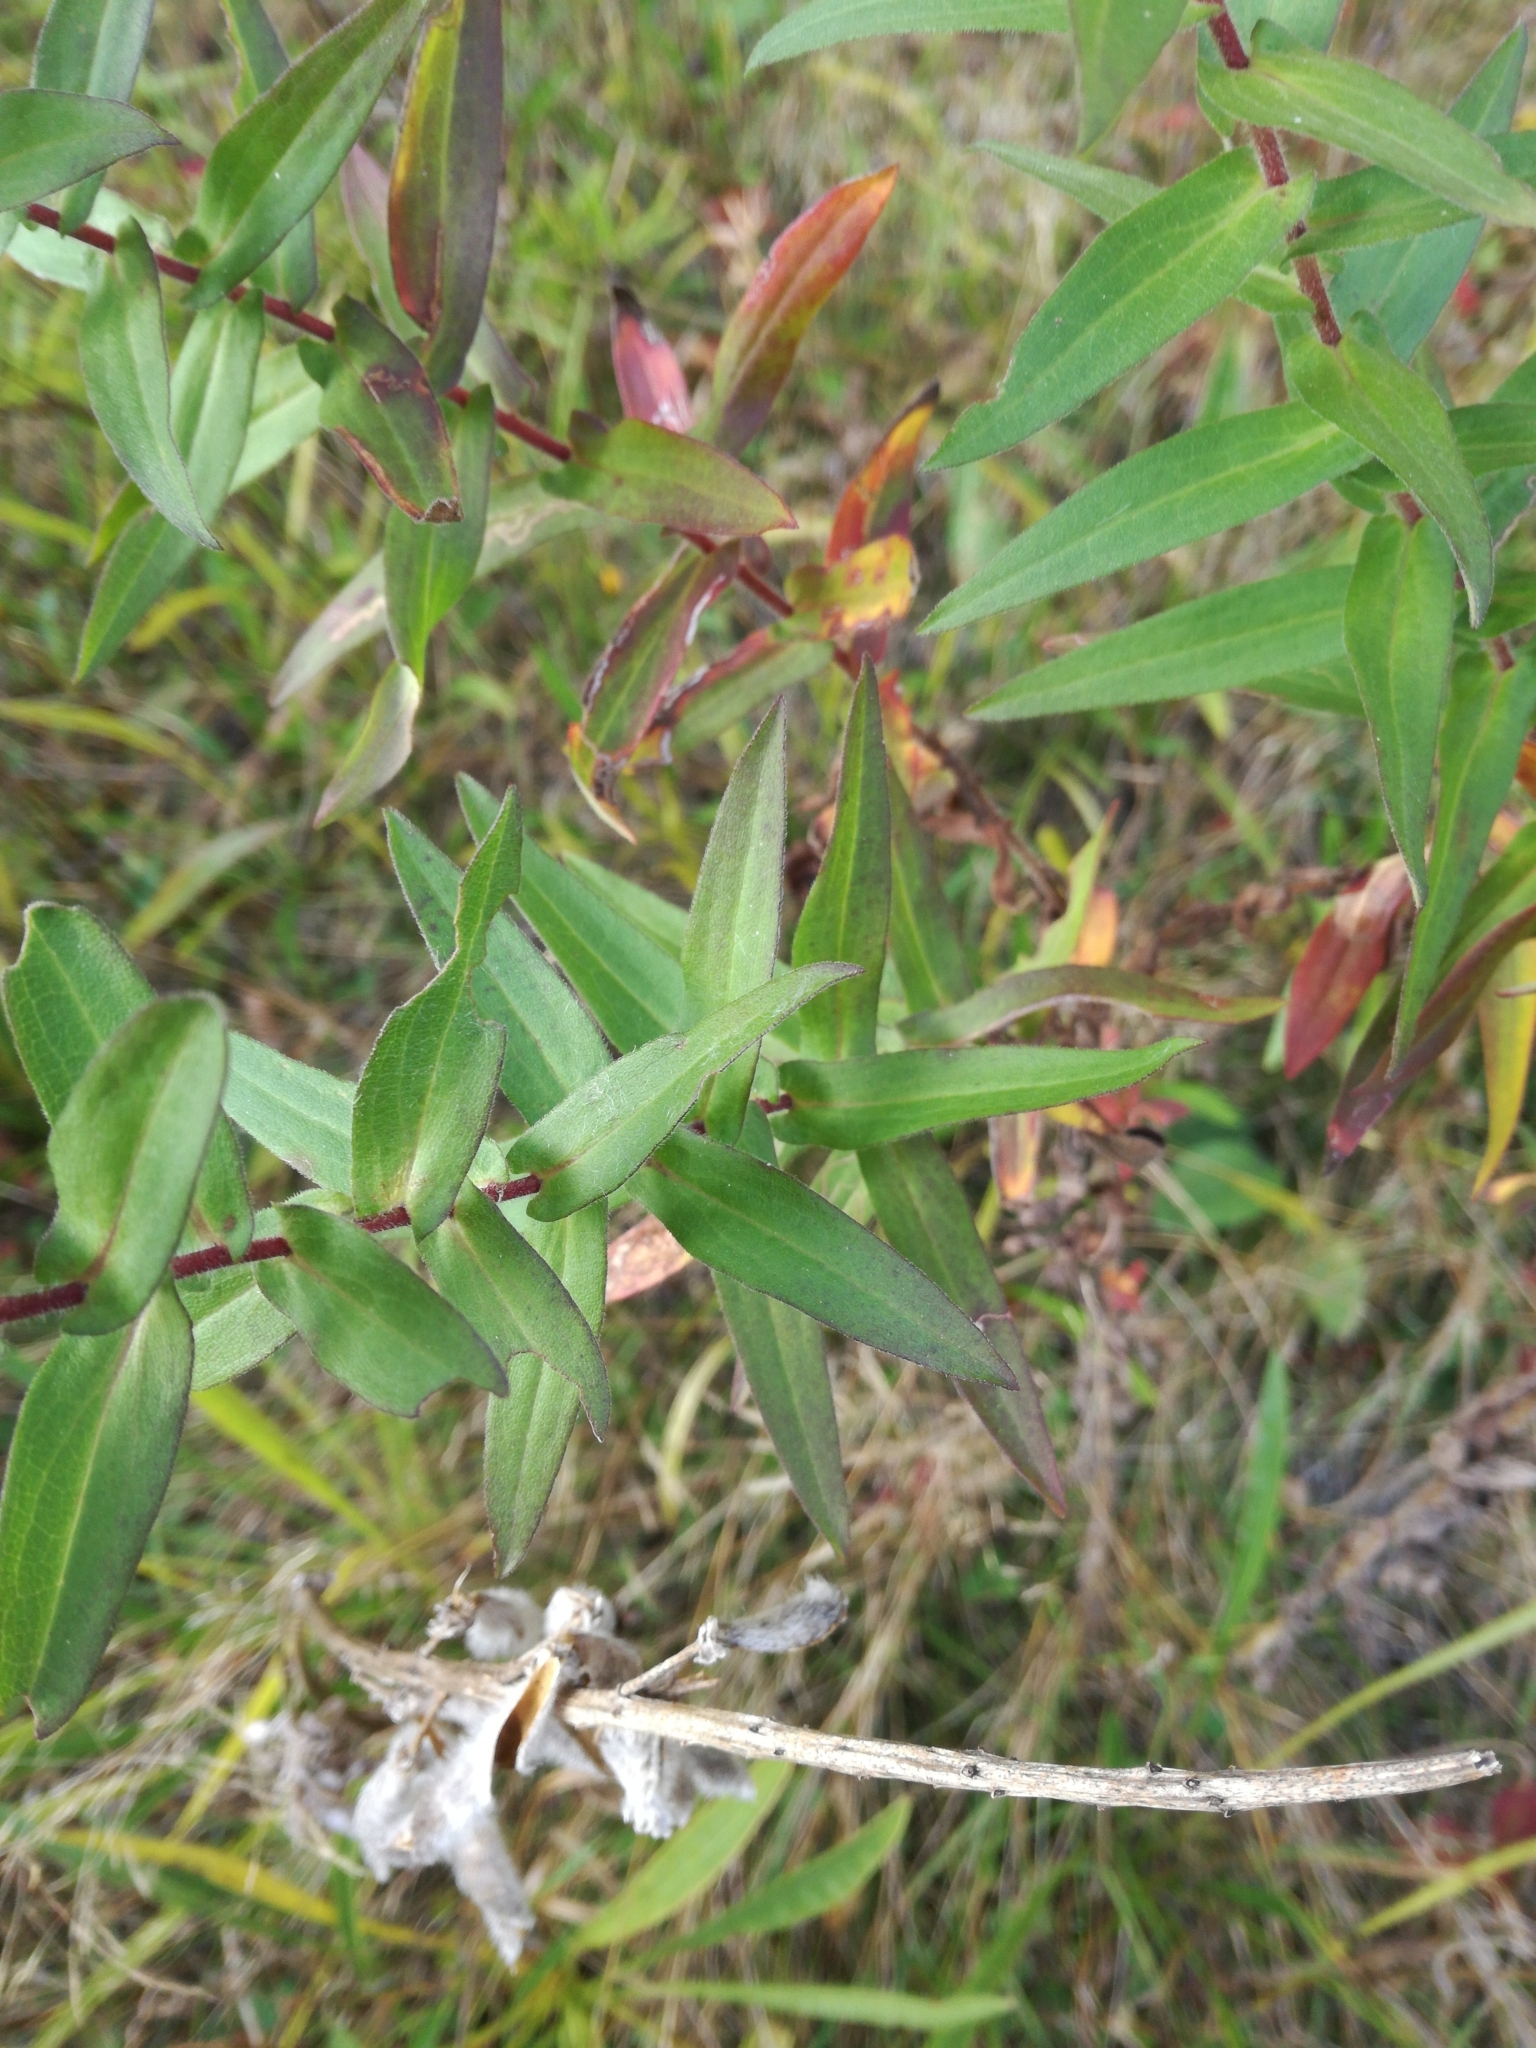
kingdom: Plantae
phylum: Tracheophyta
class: Magnoliopsida
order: Asterales
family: Asteraceae
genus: Symphyotrichum
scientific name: Symphyotrichum novae-angliae
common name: Michaelmas daisy
